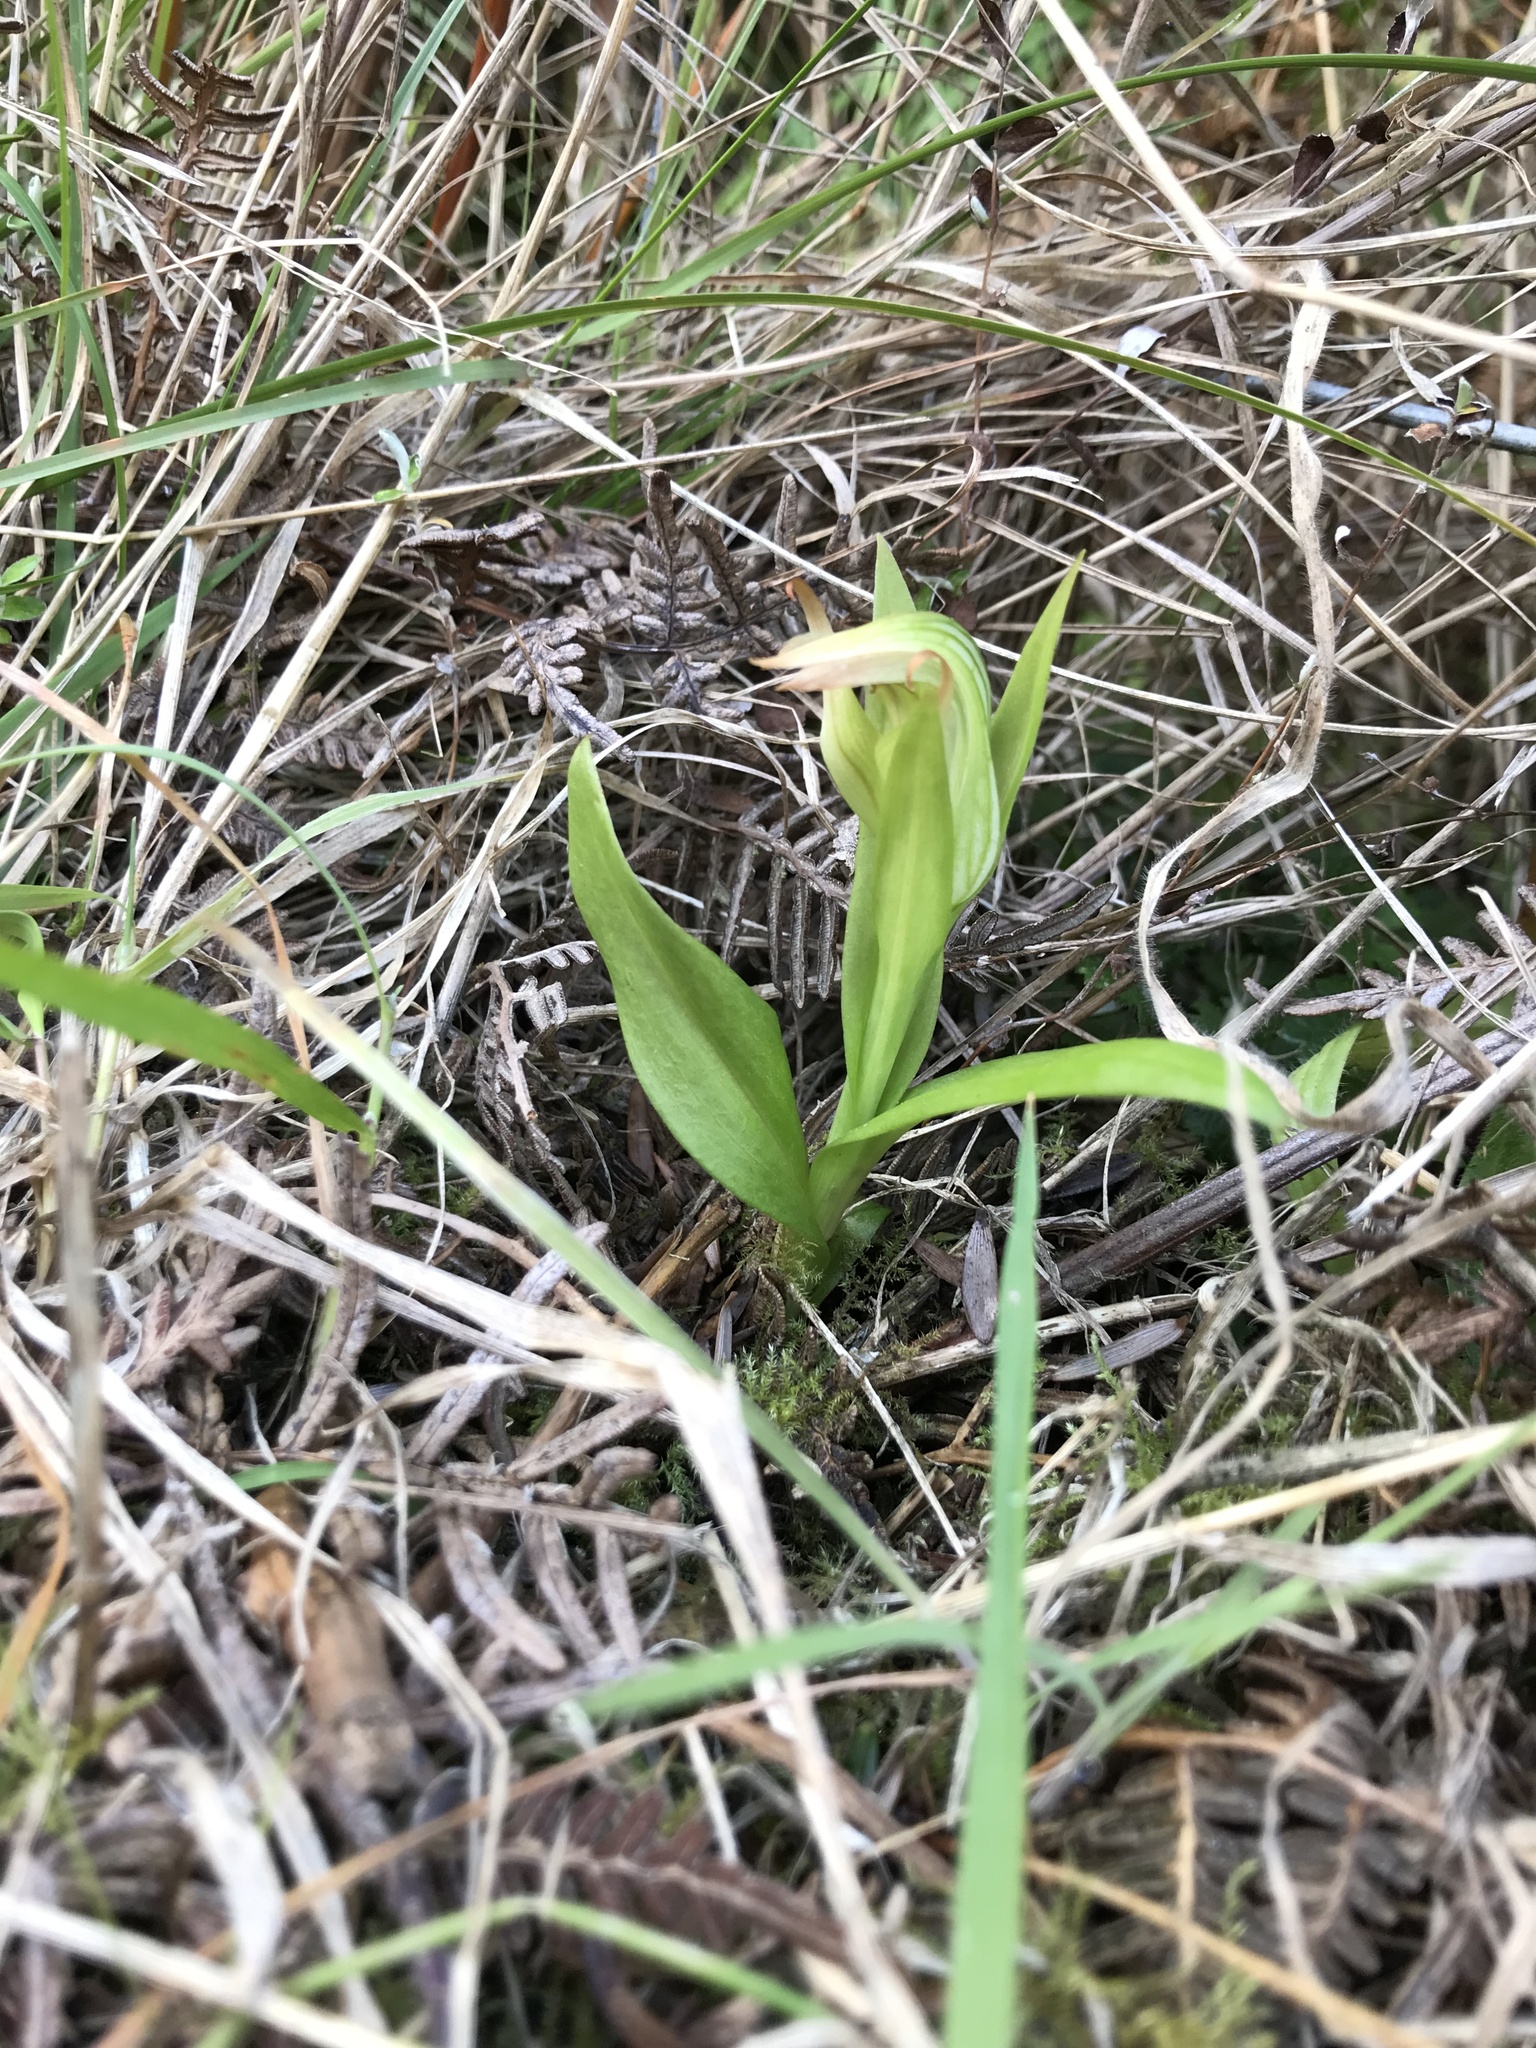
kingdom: Plantae
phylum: Tracheophyta
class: Liliopsida
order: Asparagales
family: Orchidaceae
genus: Pterostylis
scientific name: Pterostylis silvicultrix
